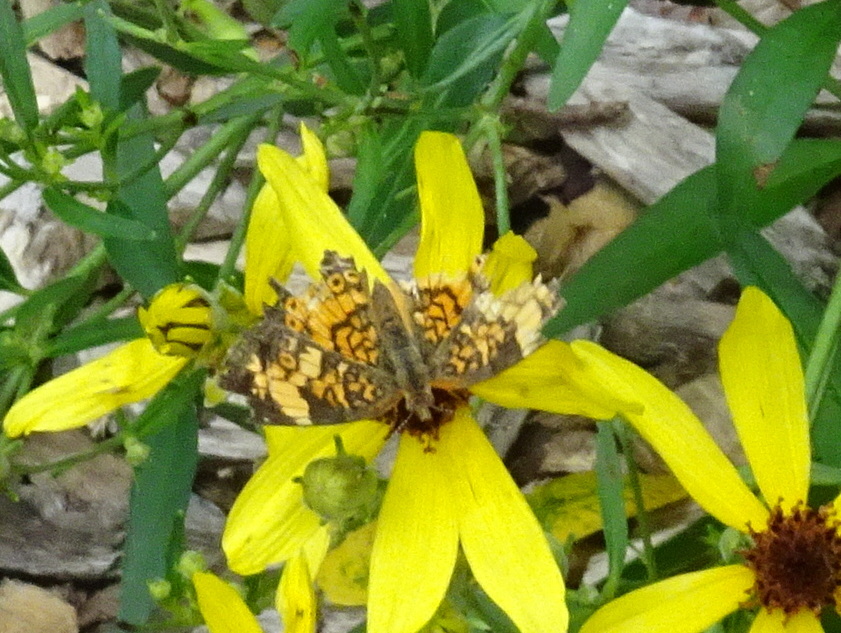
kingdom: Animalia
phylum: Arthropoda
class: Insecta
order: Lepidoptera
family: Nymphalidae
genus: Phyciodes
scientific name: Phyciodes tharos
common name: Pearl crescent
